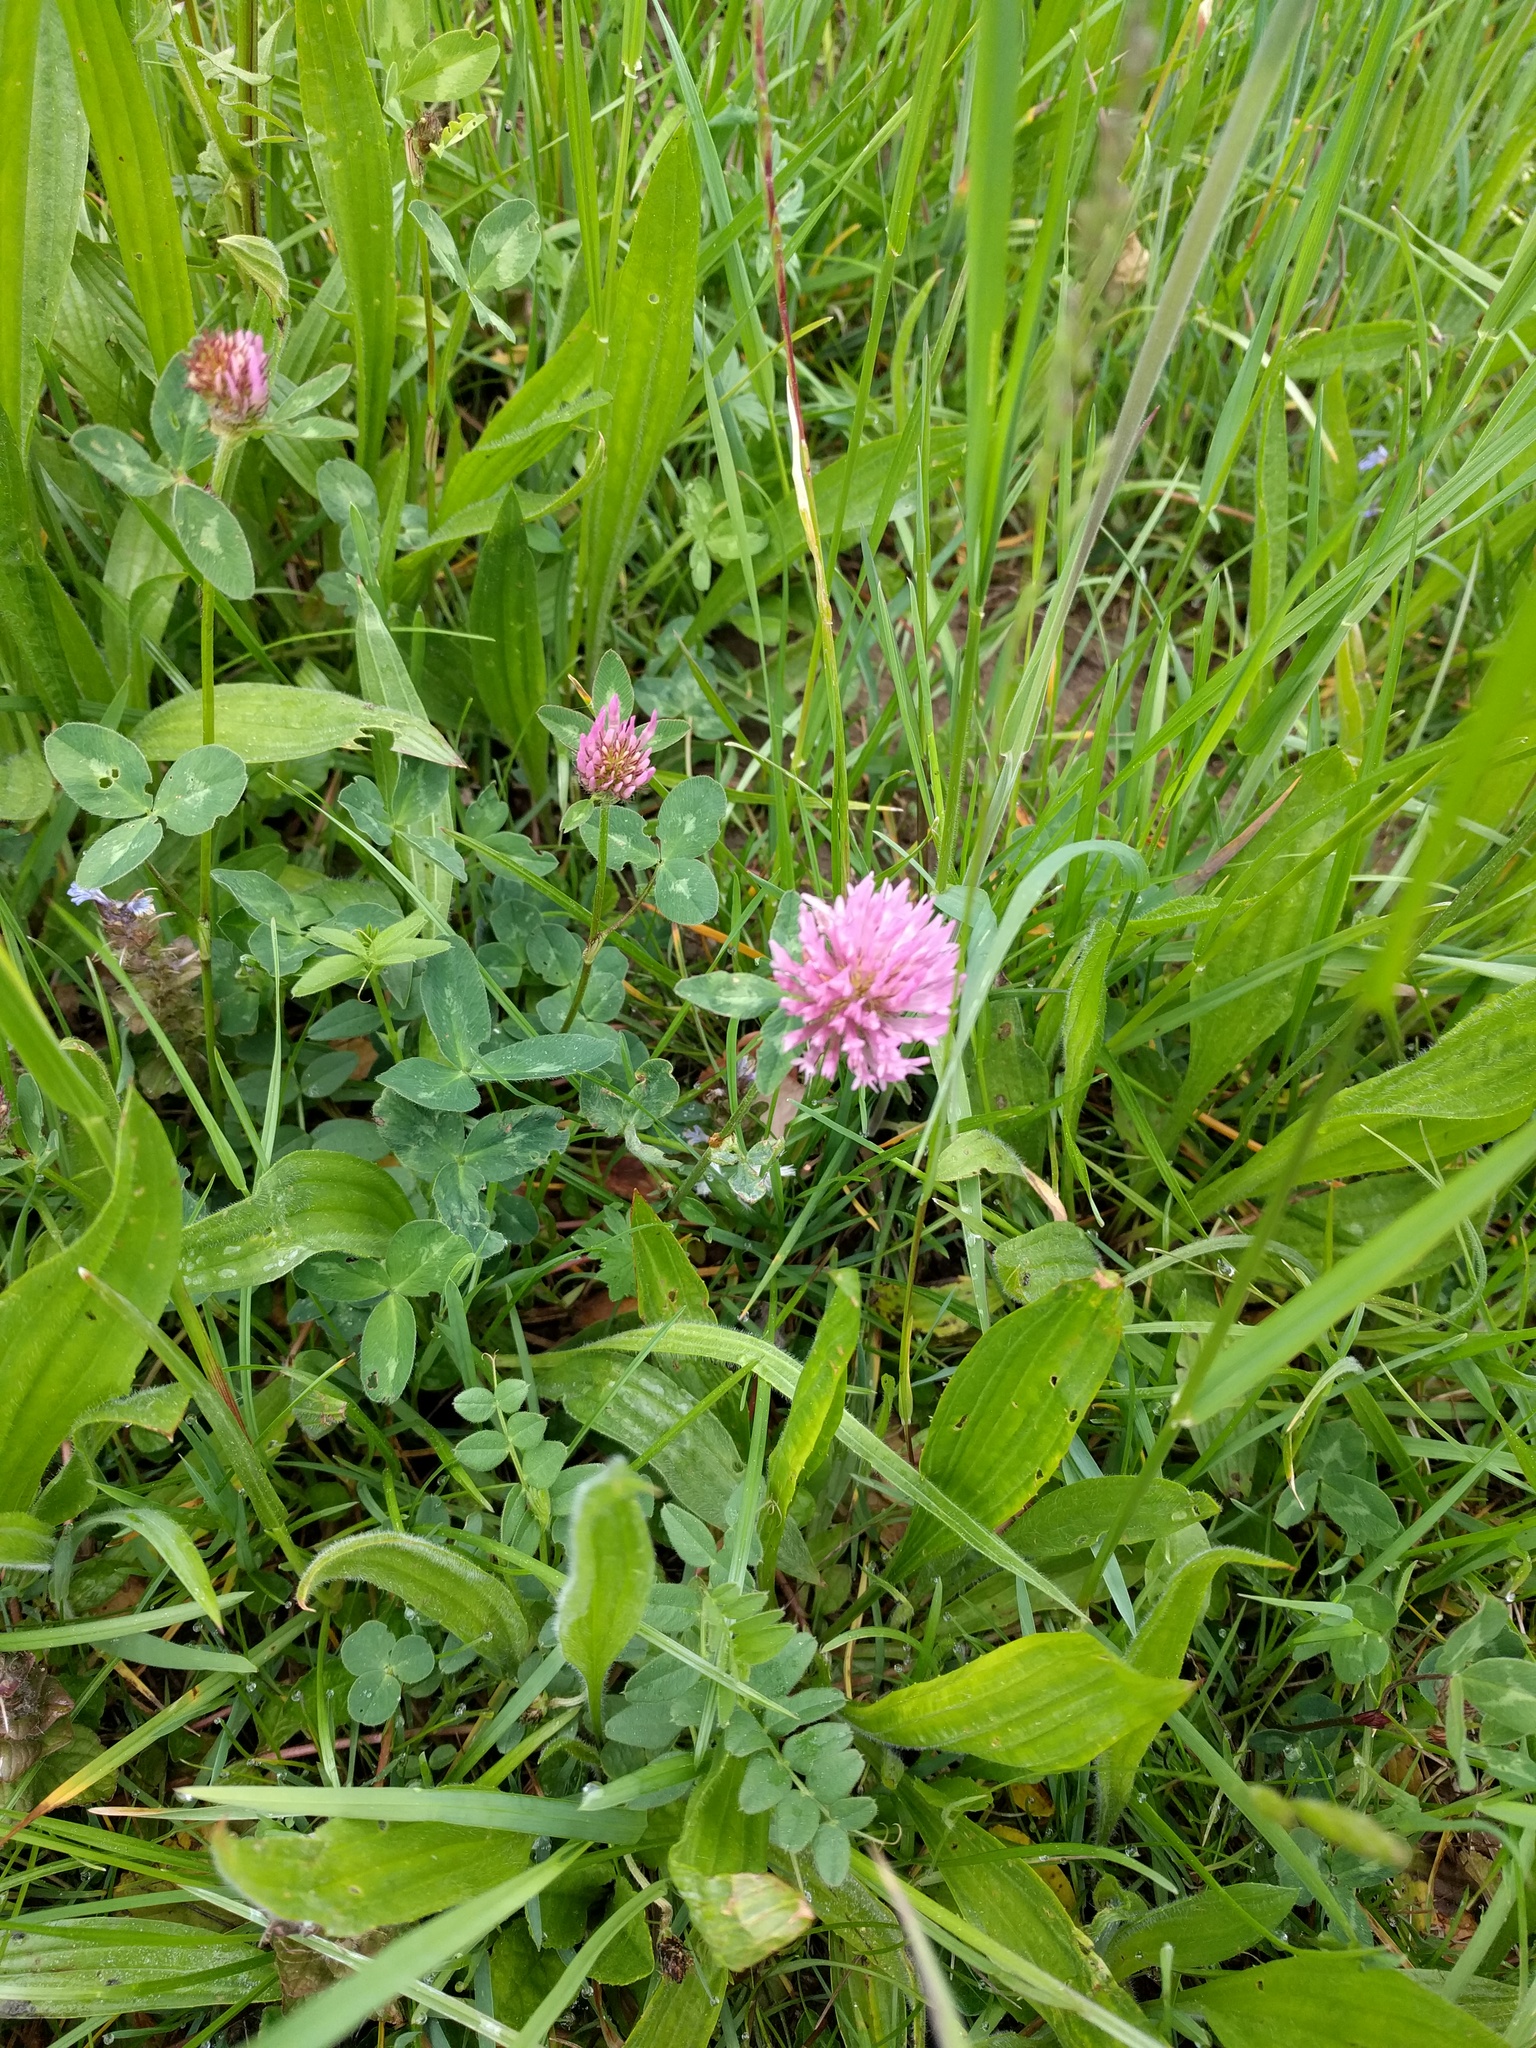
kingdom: Plantae
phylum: Tracheophyta
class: Magnoliopsida
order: Fabales
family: Fabaceae
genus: Trifolium
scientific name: Trifolium pratense
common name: Red clover
